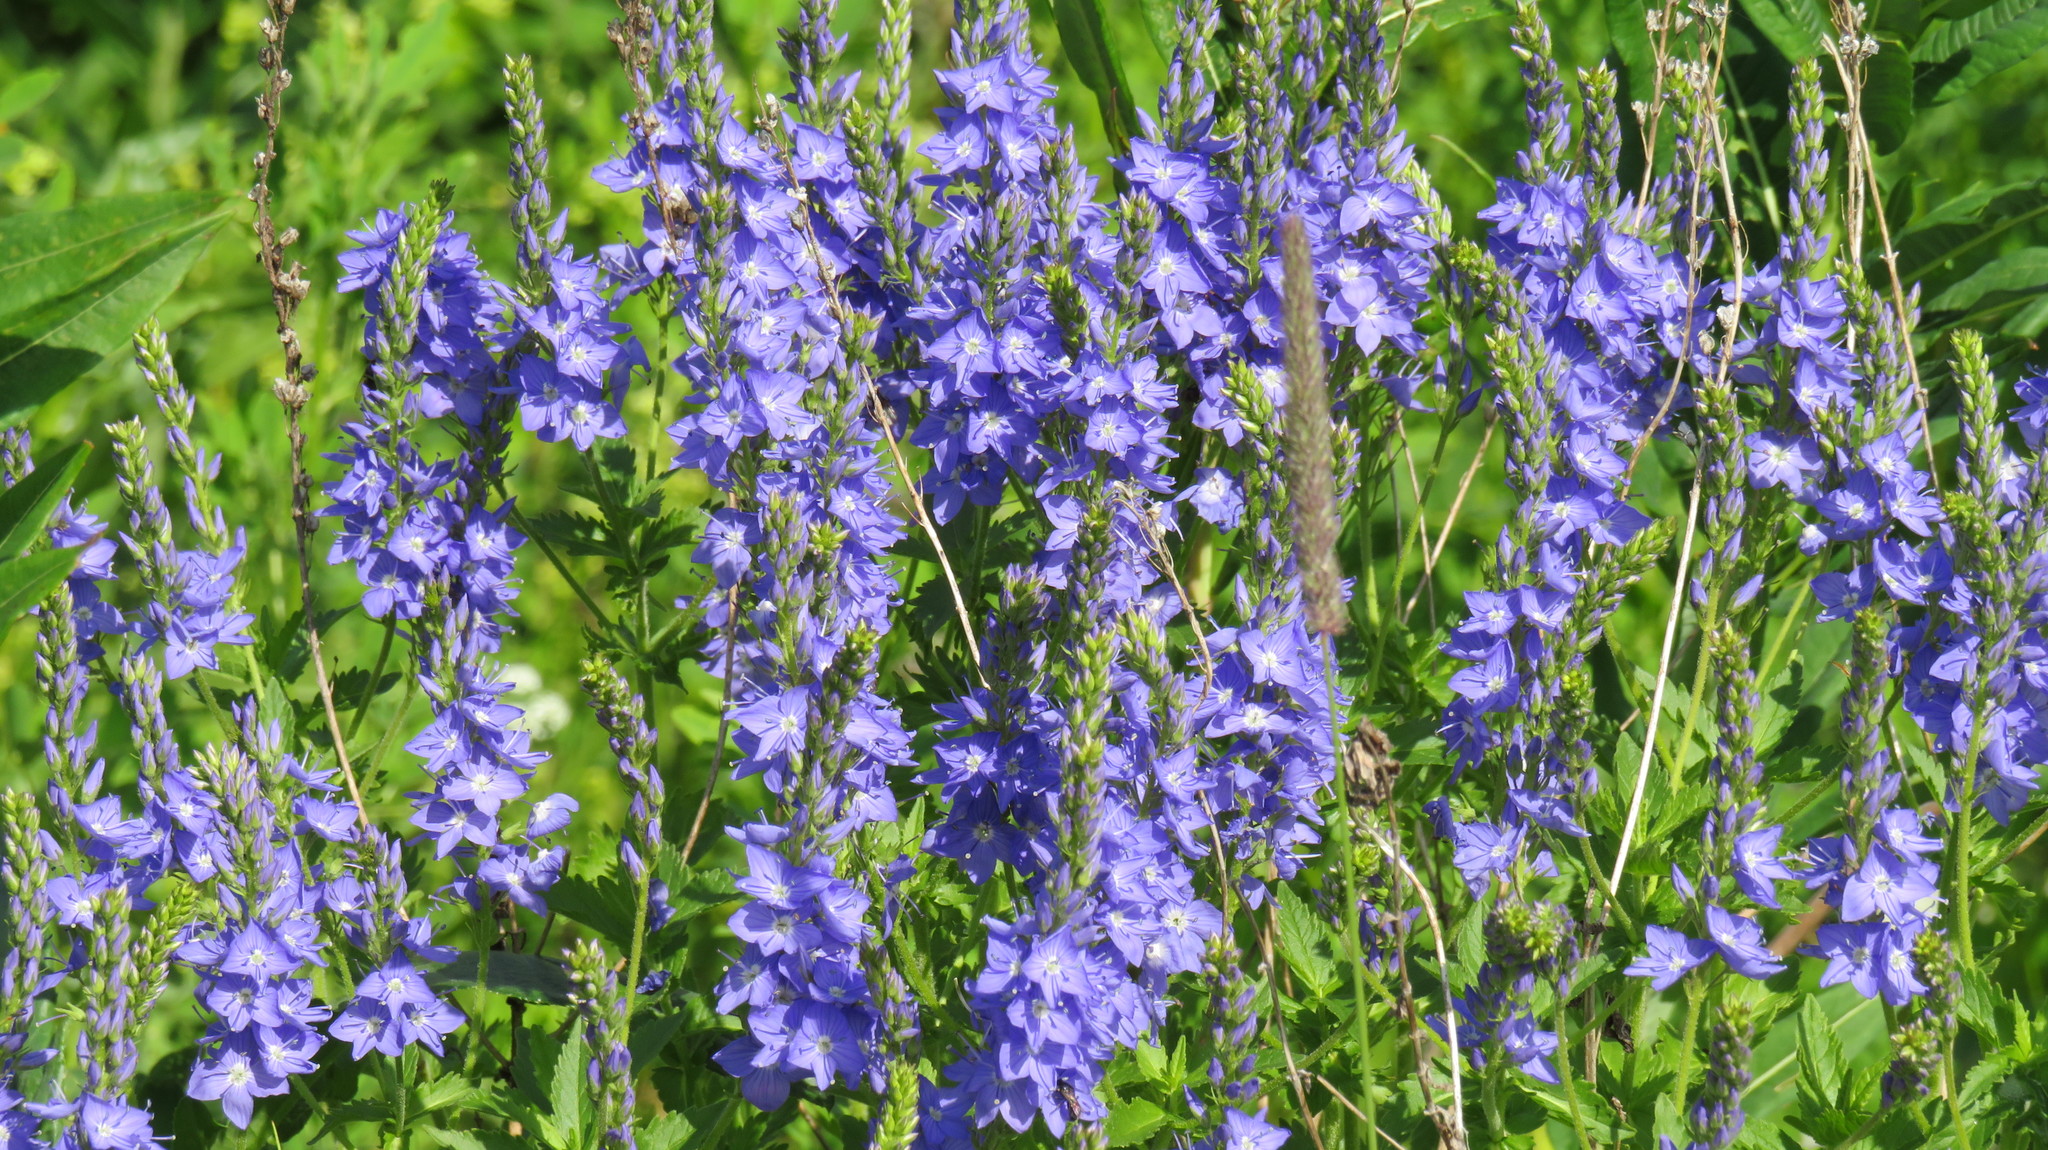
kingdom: Plantae
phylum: Tracheophyta
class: Magnoliopsida
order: Lamiales
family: Plantaginaceae
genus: Veronica
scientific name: Veronica teucrium
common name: Large speedwell
